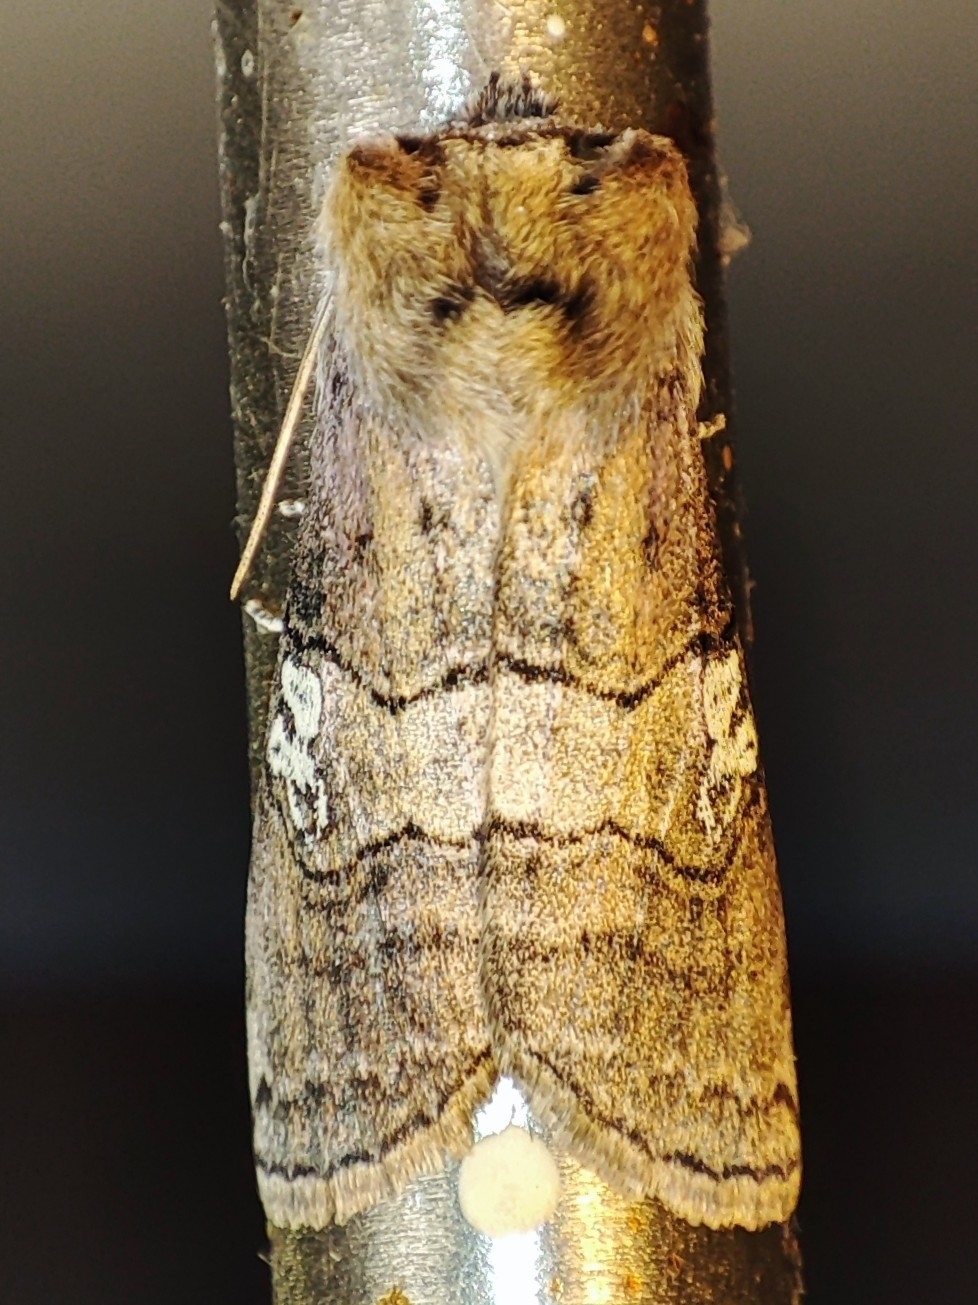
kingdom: Animalia
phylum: Arthropoda
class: Insecta
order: Lepidoptera
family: Drepanidae
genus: Tethea
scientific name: Tethea ocularis
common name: Figure of eighty
